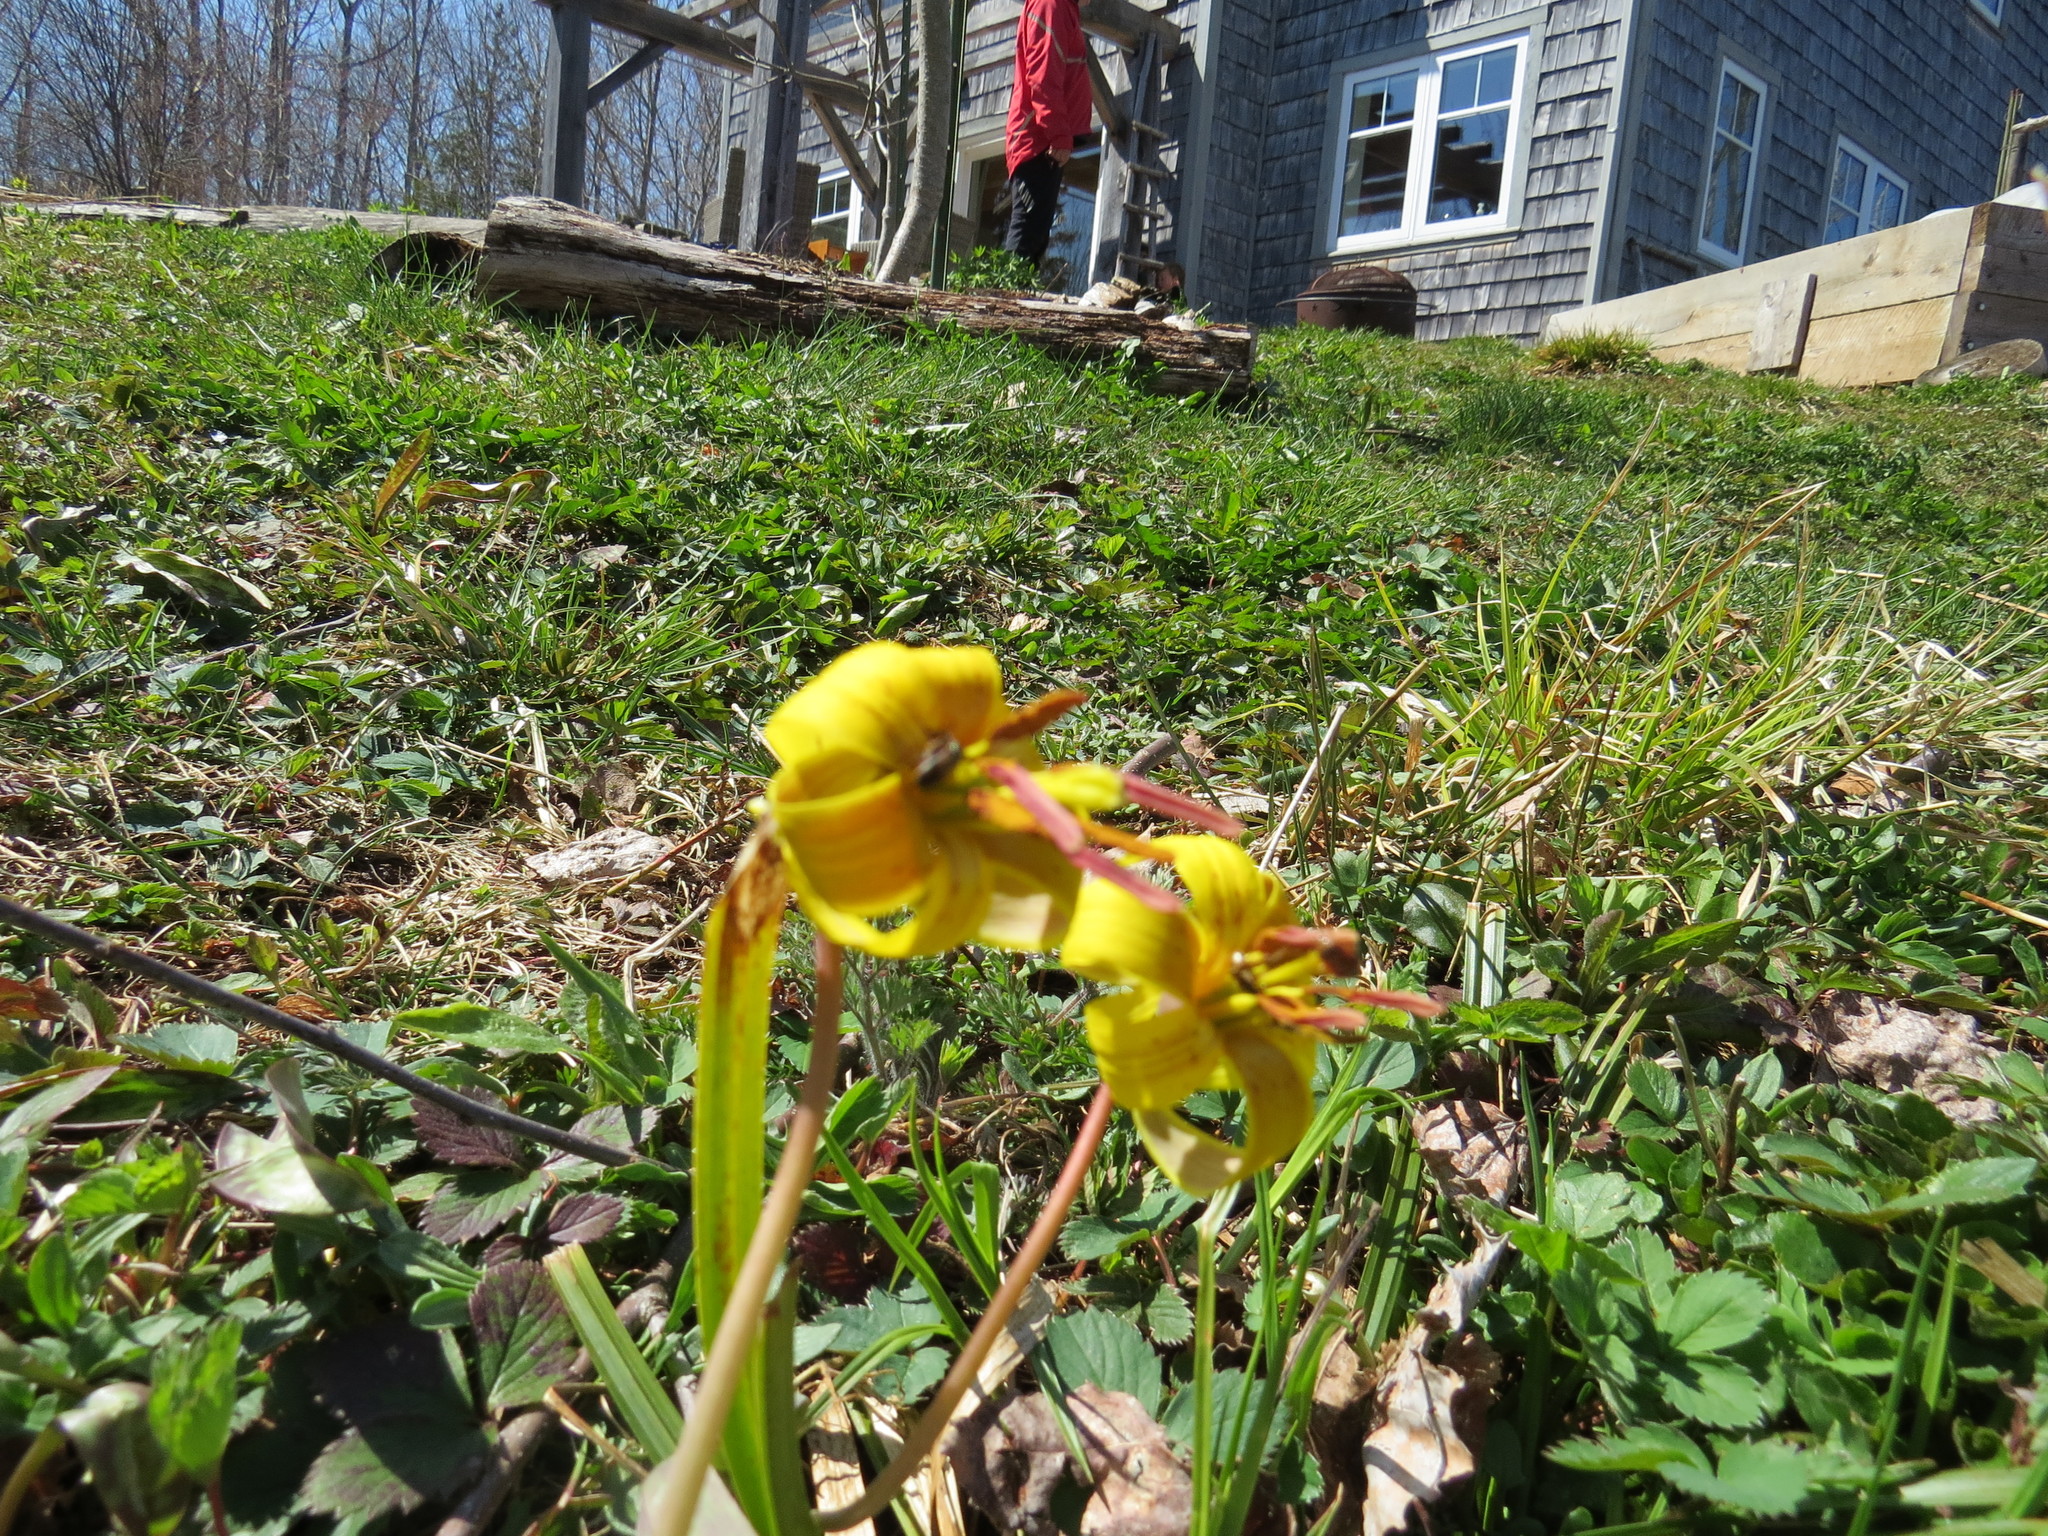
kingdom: Plantae
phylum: Tracheophyta
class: Liliopsida
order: Liliales
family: Liliaceae
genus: Erythronium
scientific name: Erythronium americanum
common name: Yellow adder's-tongue
